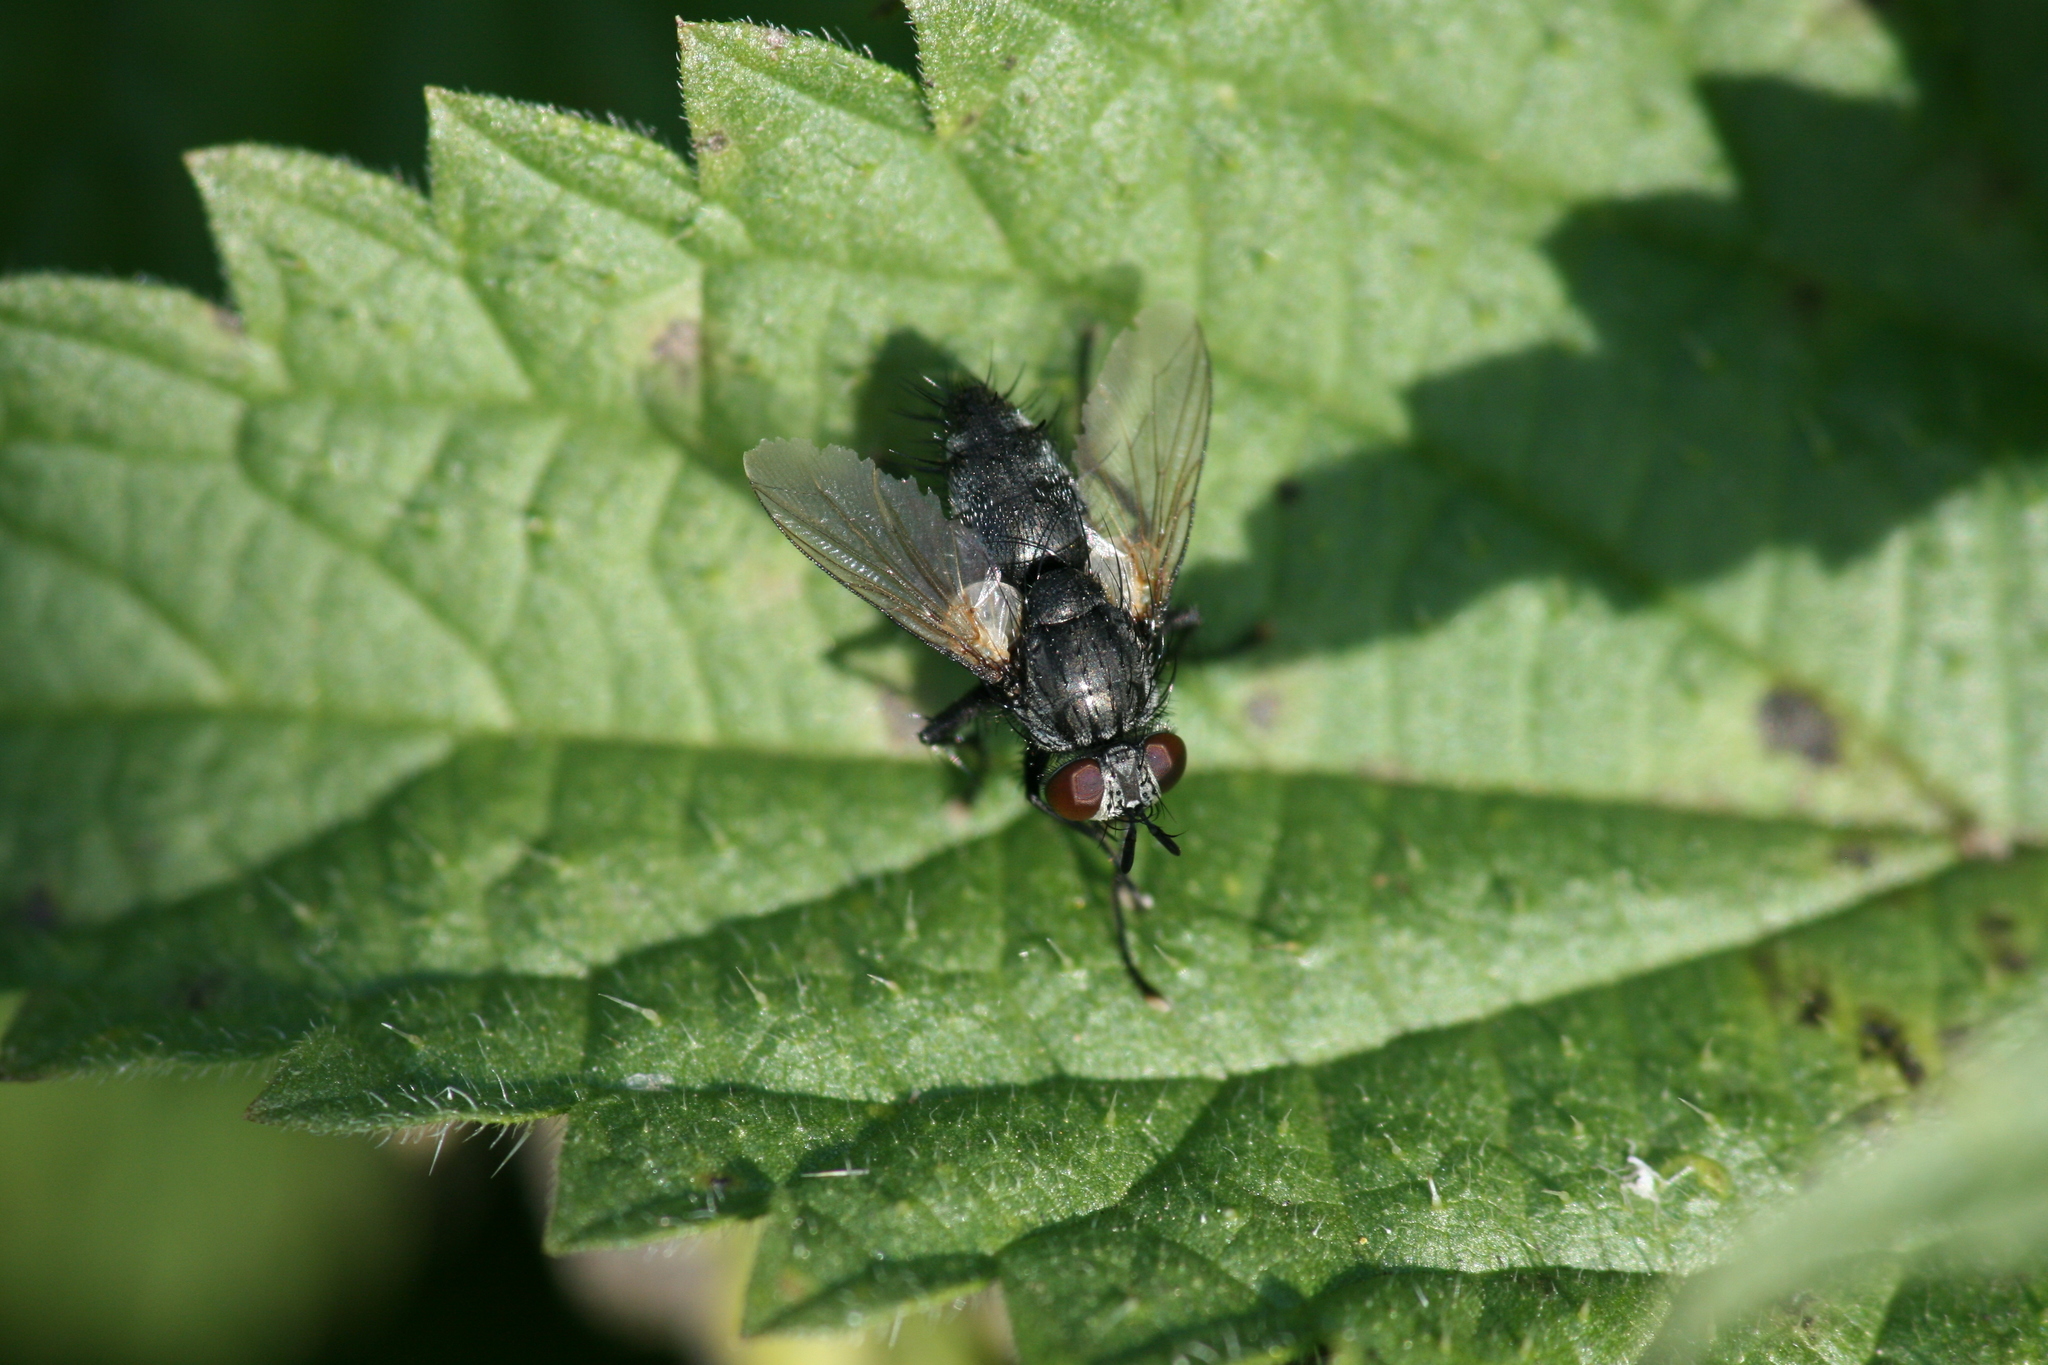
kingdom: Animalia
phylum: Arthropoda
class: Insecta
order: Diptera
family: Tachinidae
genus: Voria
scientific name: Voria ruralis
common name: Parasitic fly
